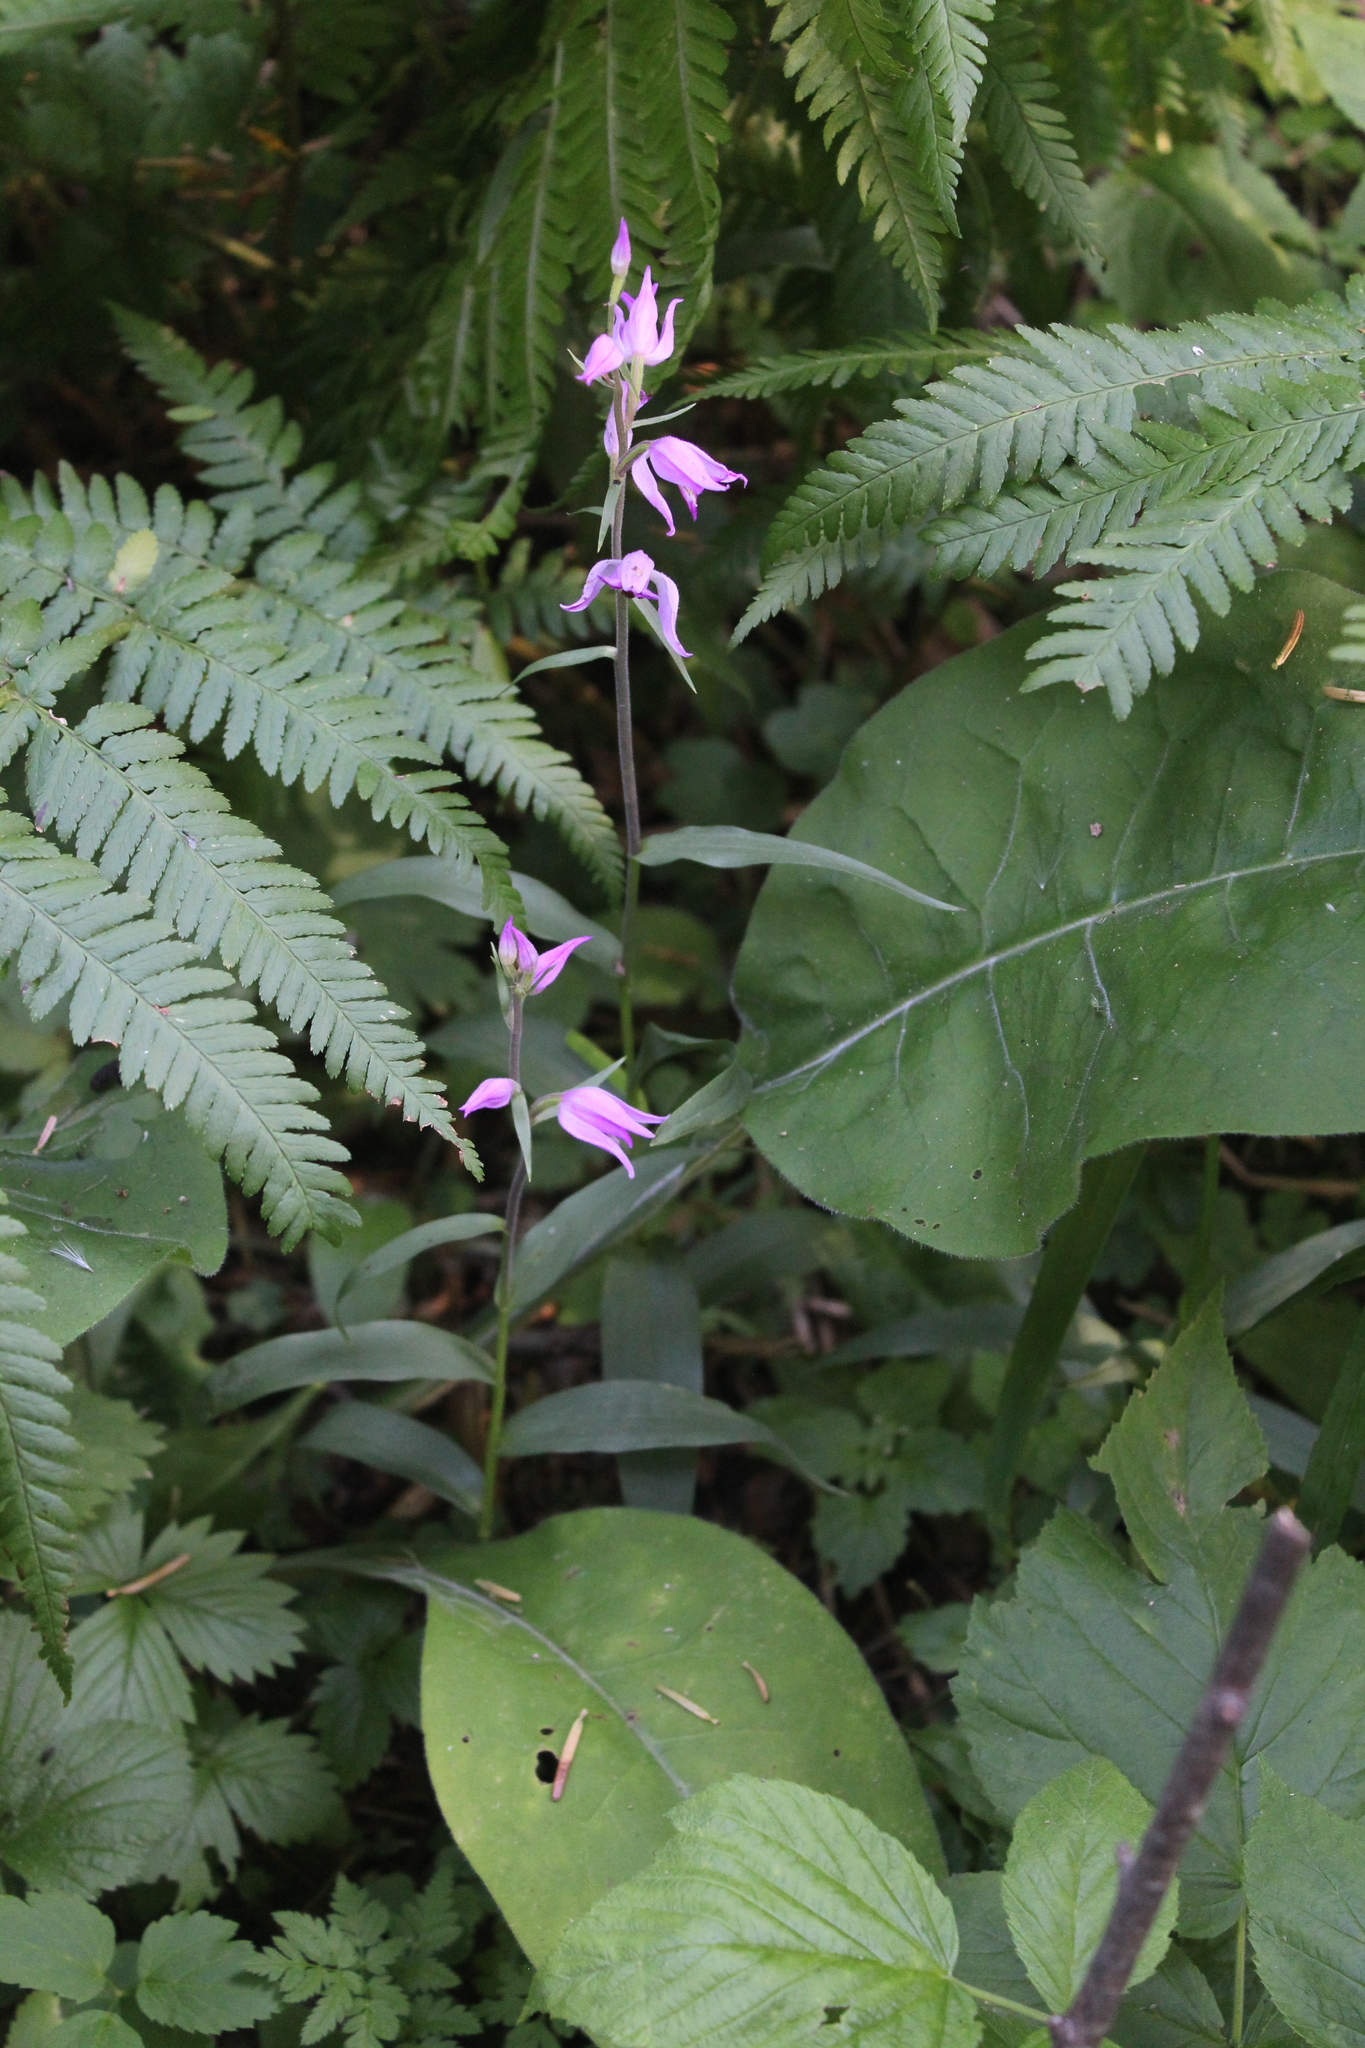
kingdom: Plantae
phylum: Tracheophyta
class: Liliopsida
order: Asparagales
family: Orchidaceae
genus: Cephalanthera
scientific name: Cephalanthera rubra
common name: Red helleborine
